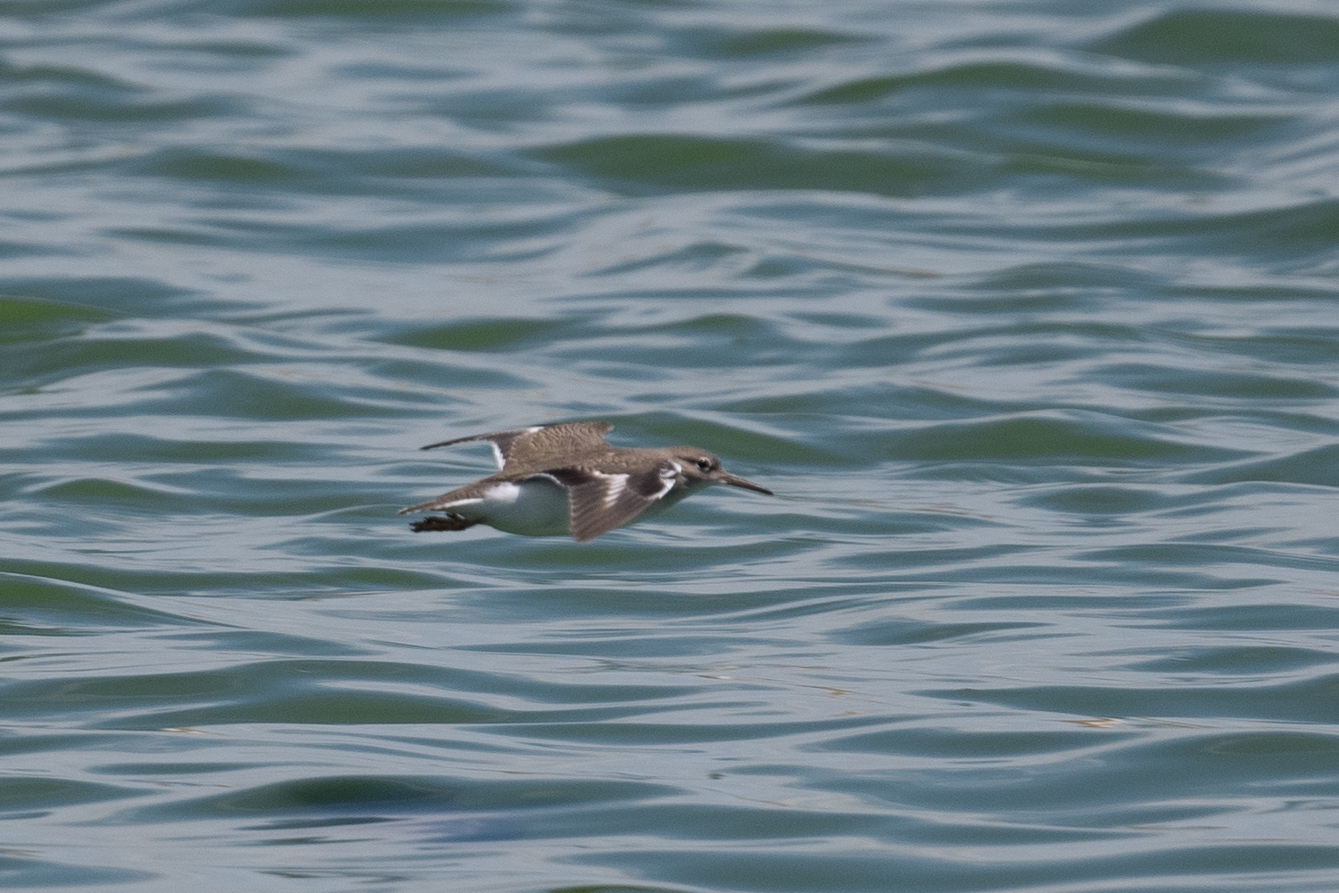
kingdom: Animalia
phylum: Chordata
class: Aves
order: Charadriiformes
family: Scolopacidae
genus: Actitis
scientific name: Actitis macularius
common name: Spotted sandpiper
